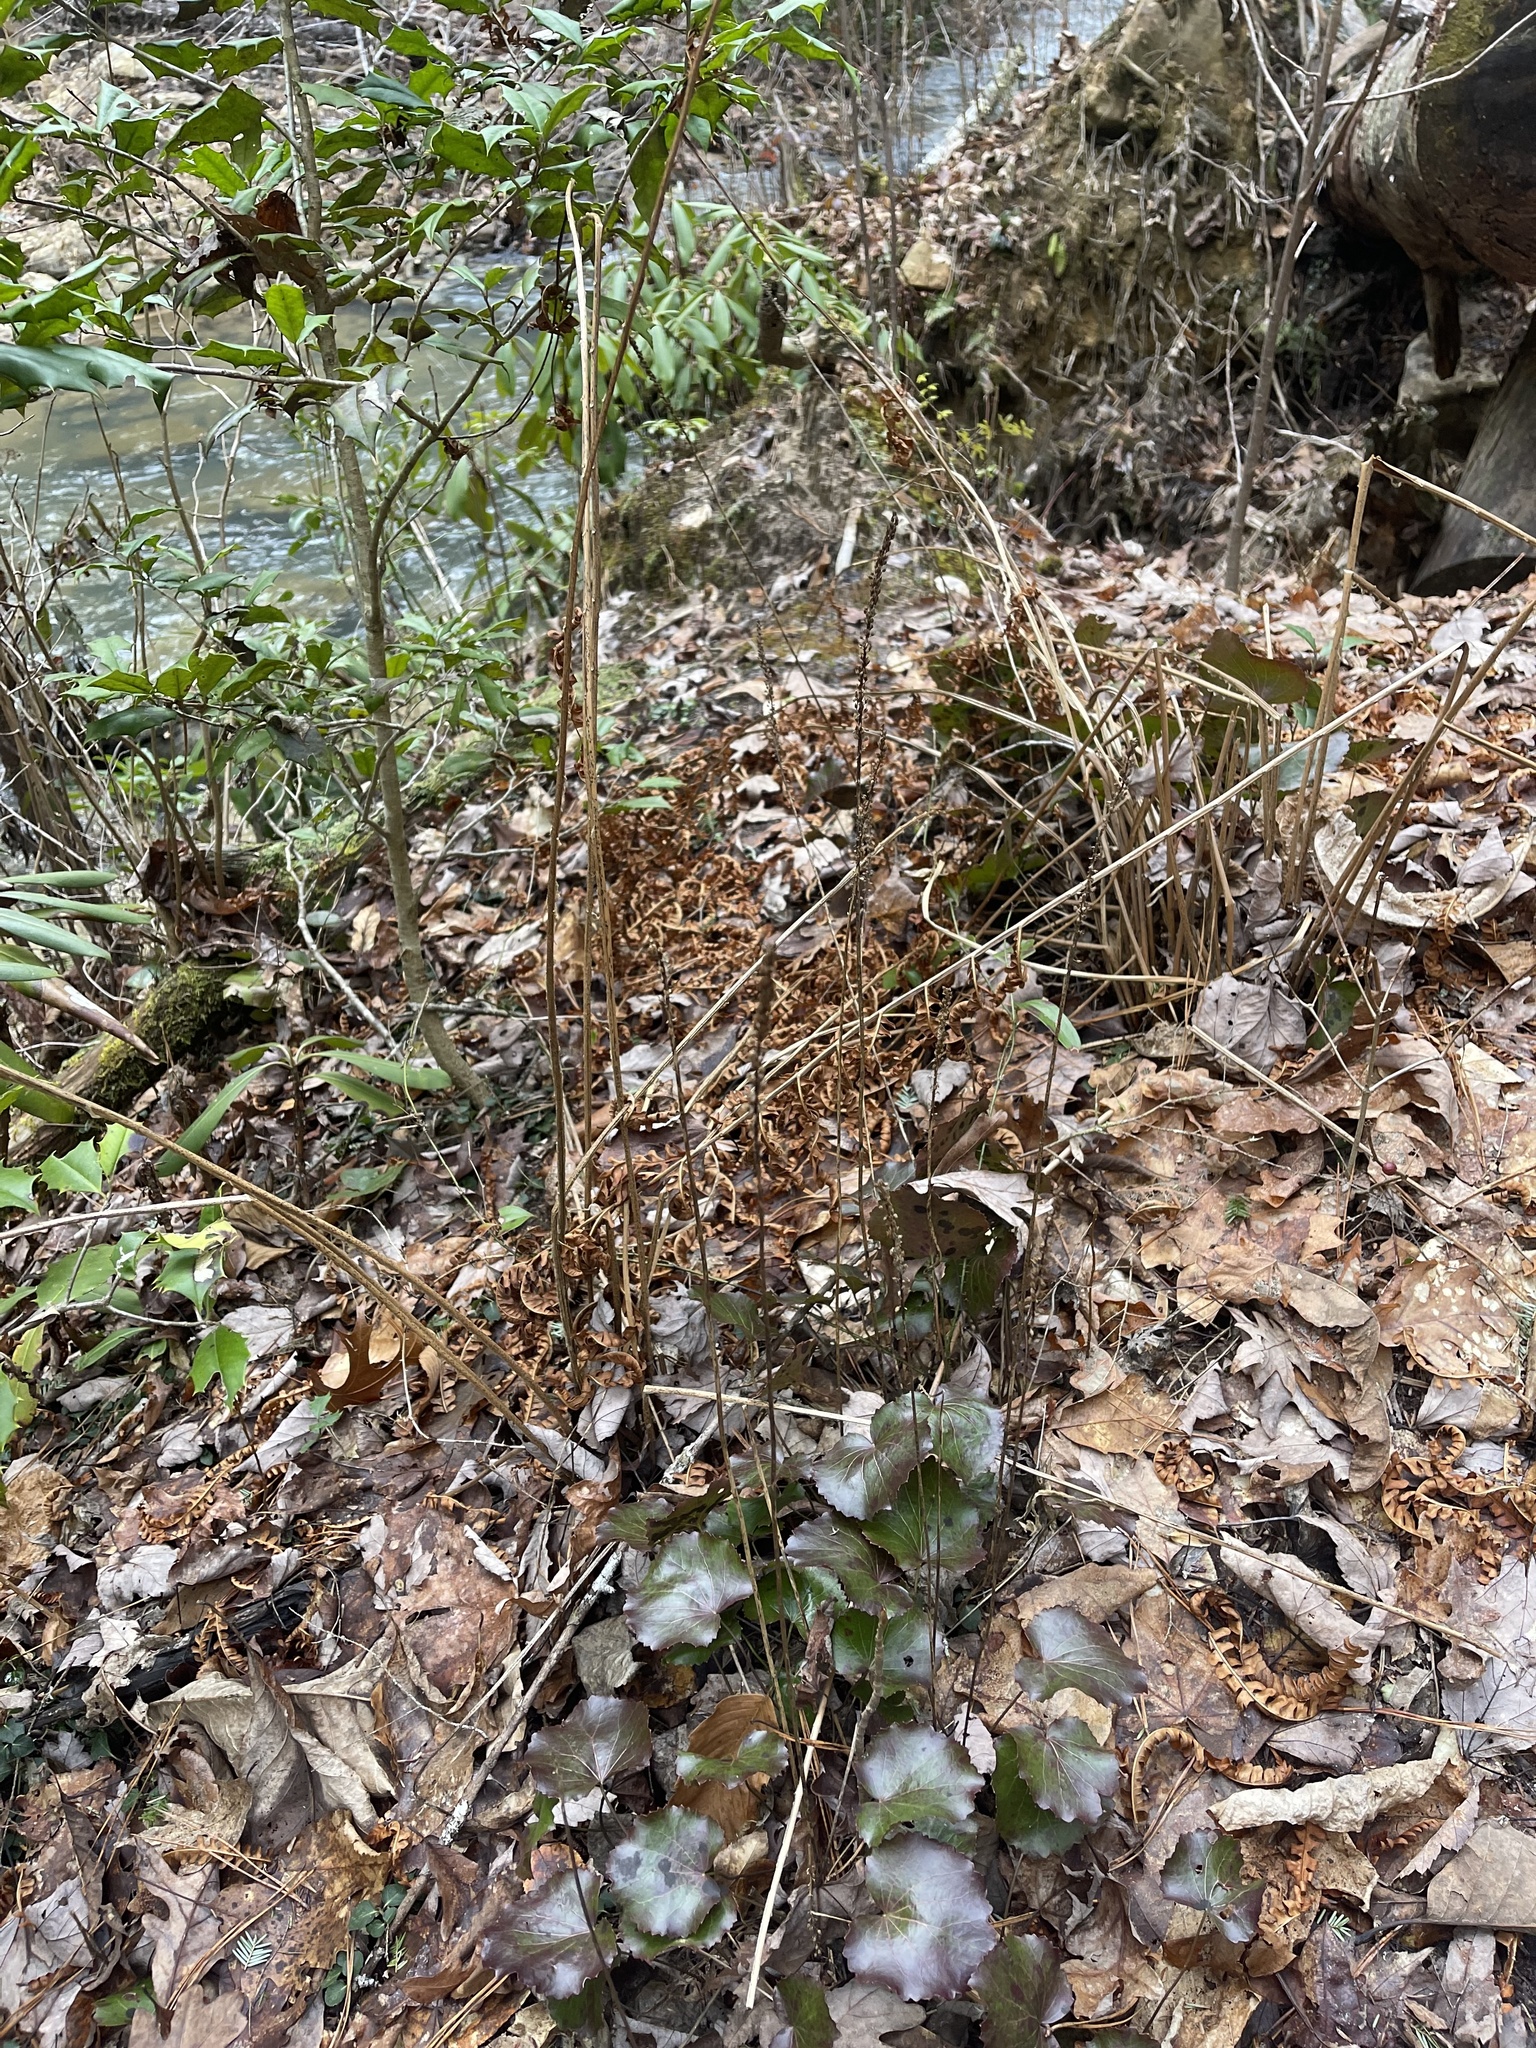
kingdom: Plantae
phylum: Tracheophyta
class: Magnoliopsida
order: Ericales
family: Diapensiaceae
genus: Galax
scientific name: Galax urceolata
